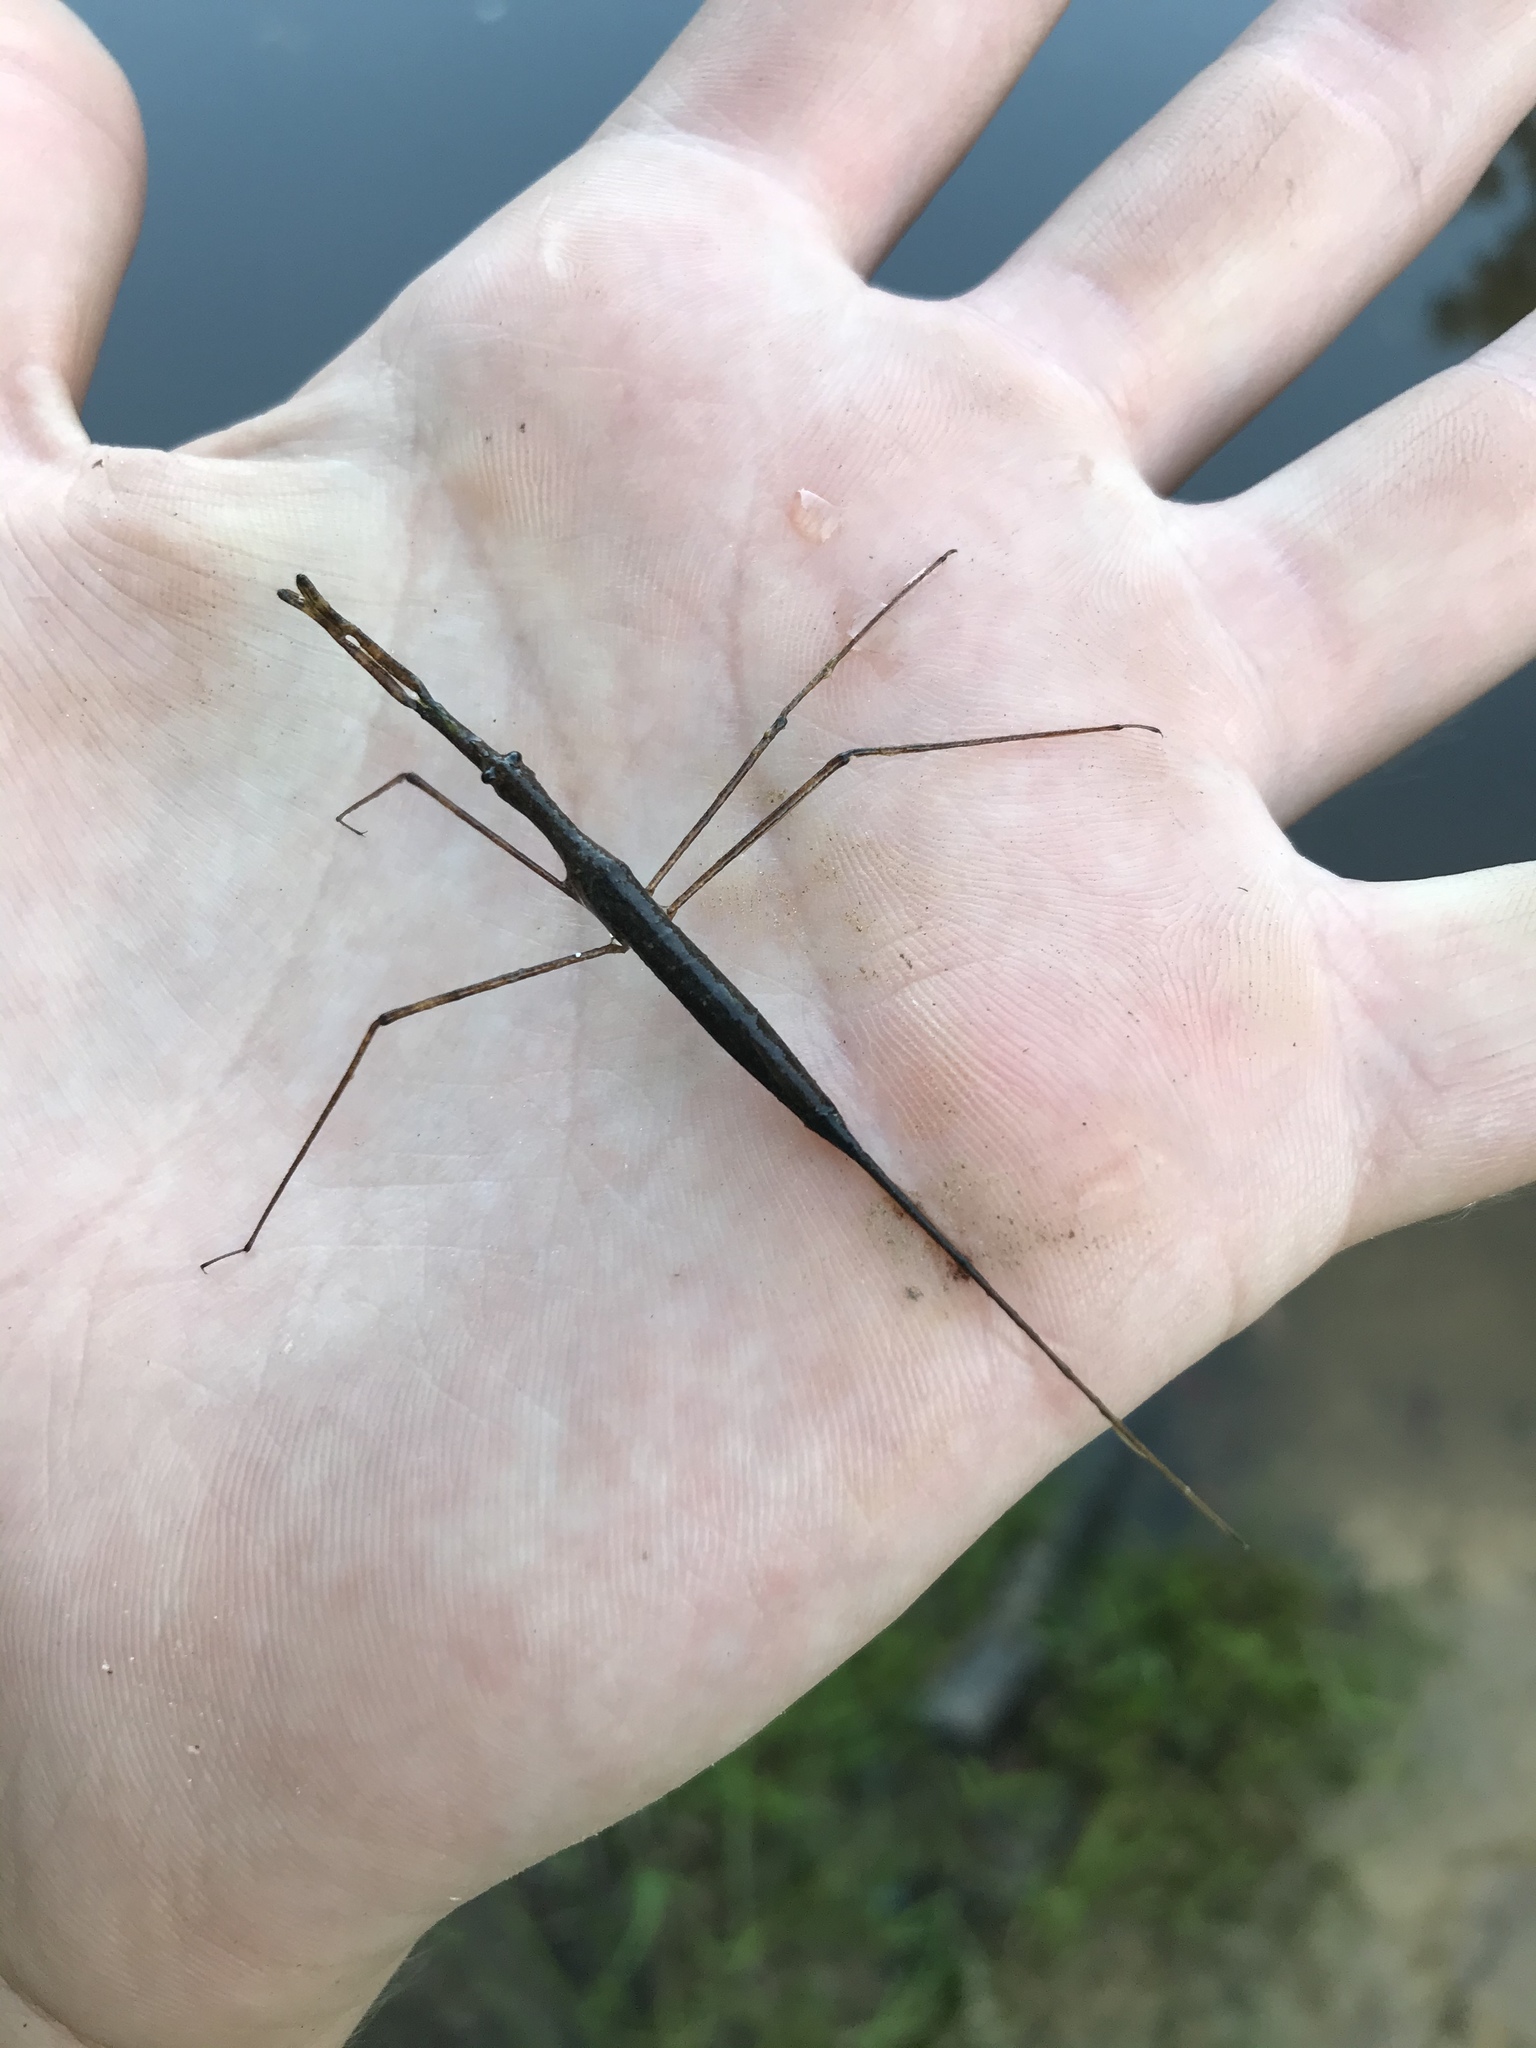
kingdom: Animalia
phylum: Arthropoda
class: Insecta
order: Hemiptera
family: Nepidae
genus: Ranatra
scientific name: Ranatra
